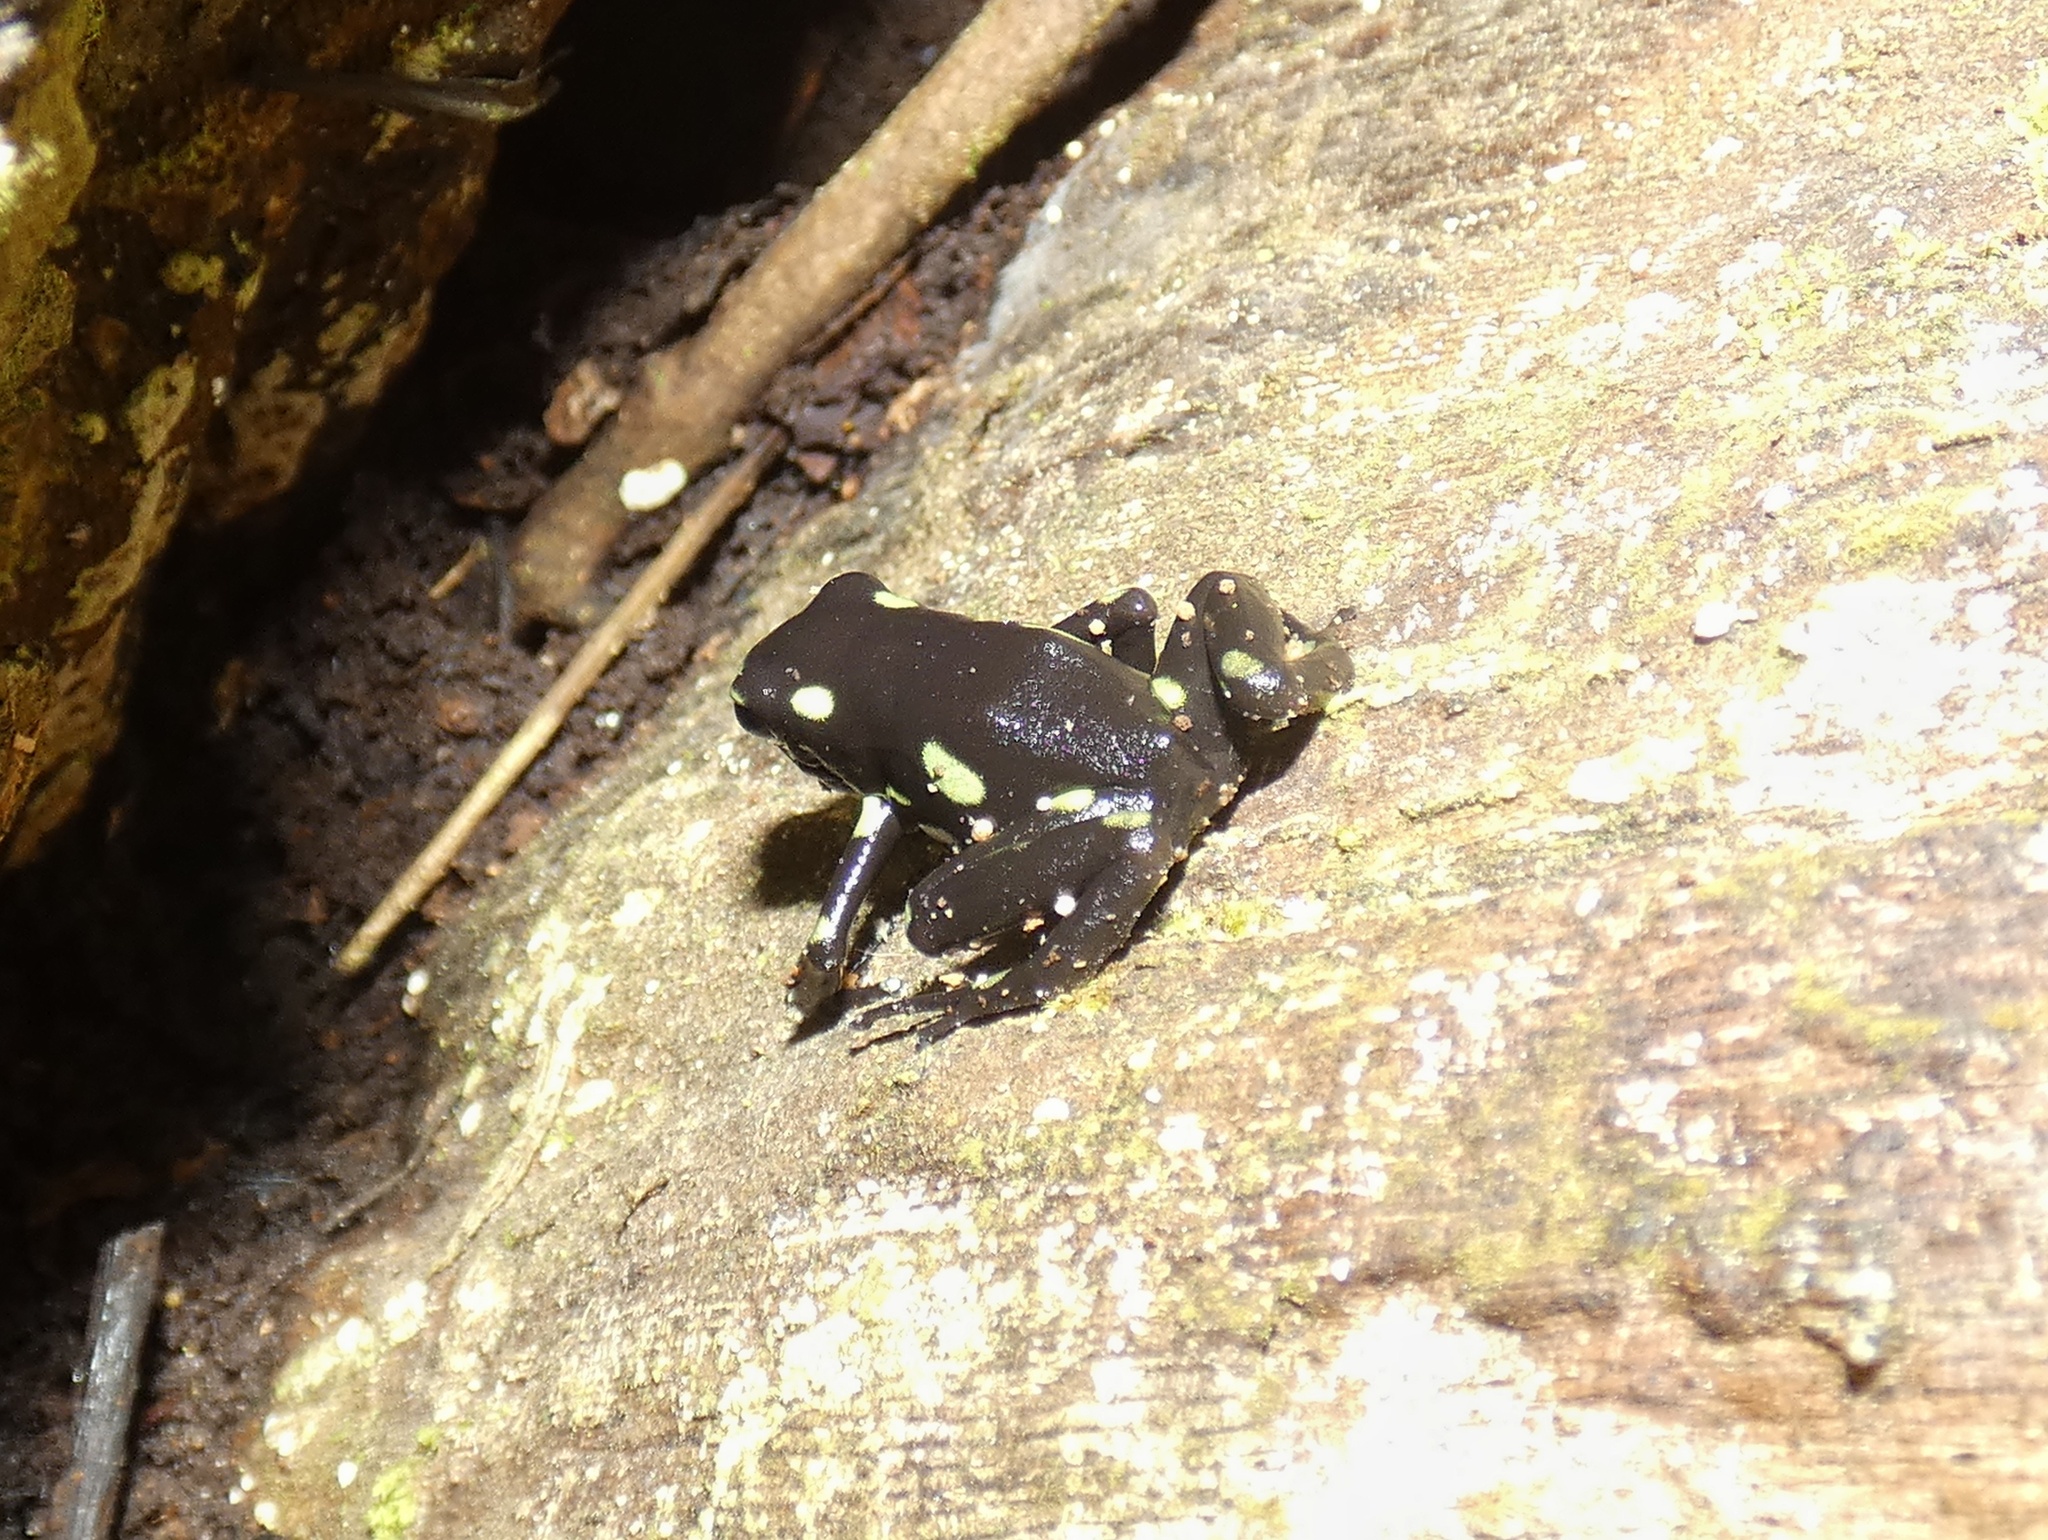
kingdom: Animalia
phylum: Chordata
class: Amphibia
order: Anura
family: Dendrobatidae
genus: Dendrobates
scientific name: Dendrobates auratus
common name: Green and black poison dart frog
